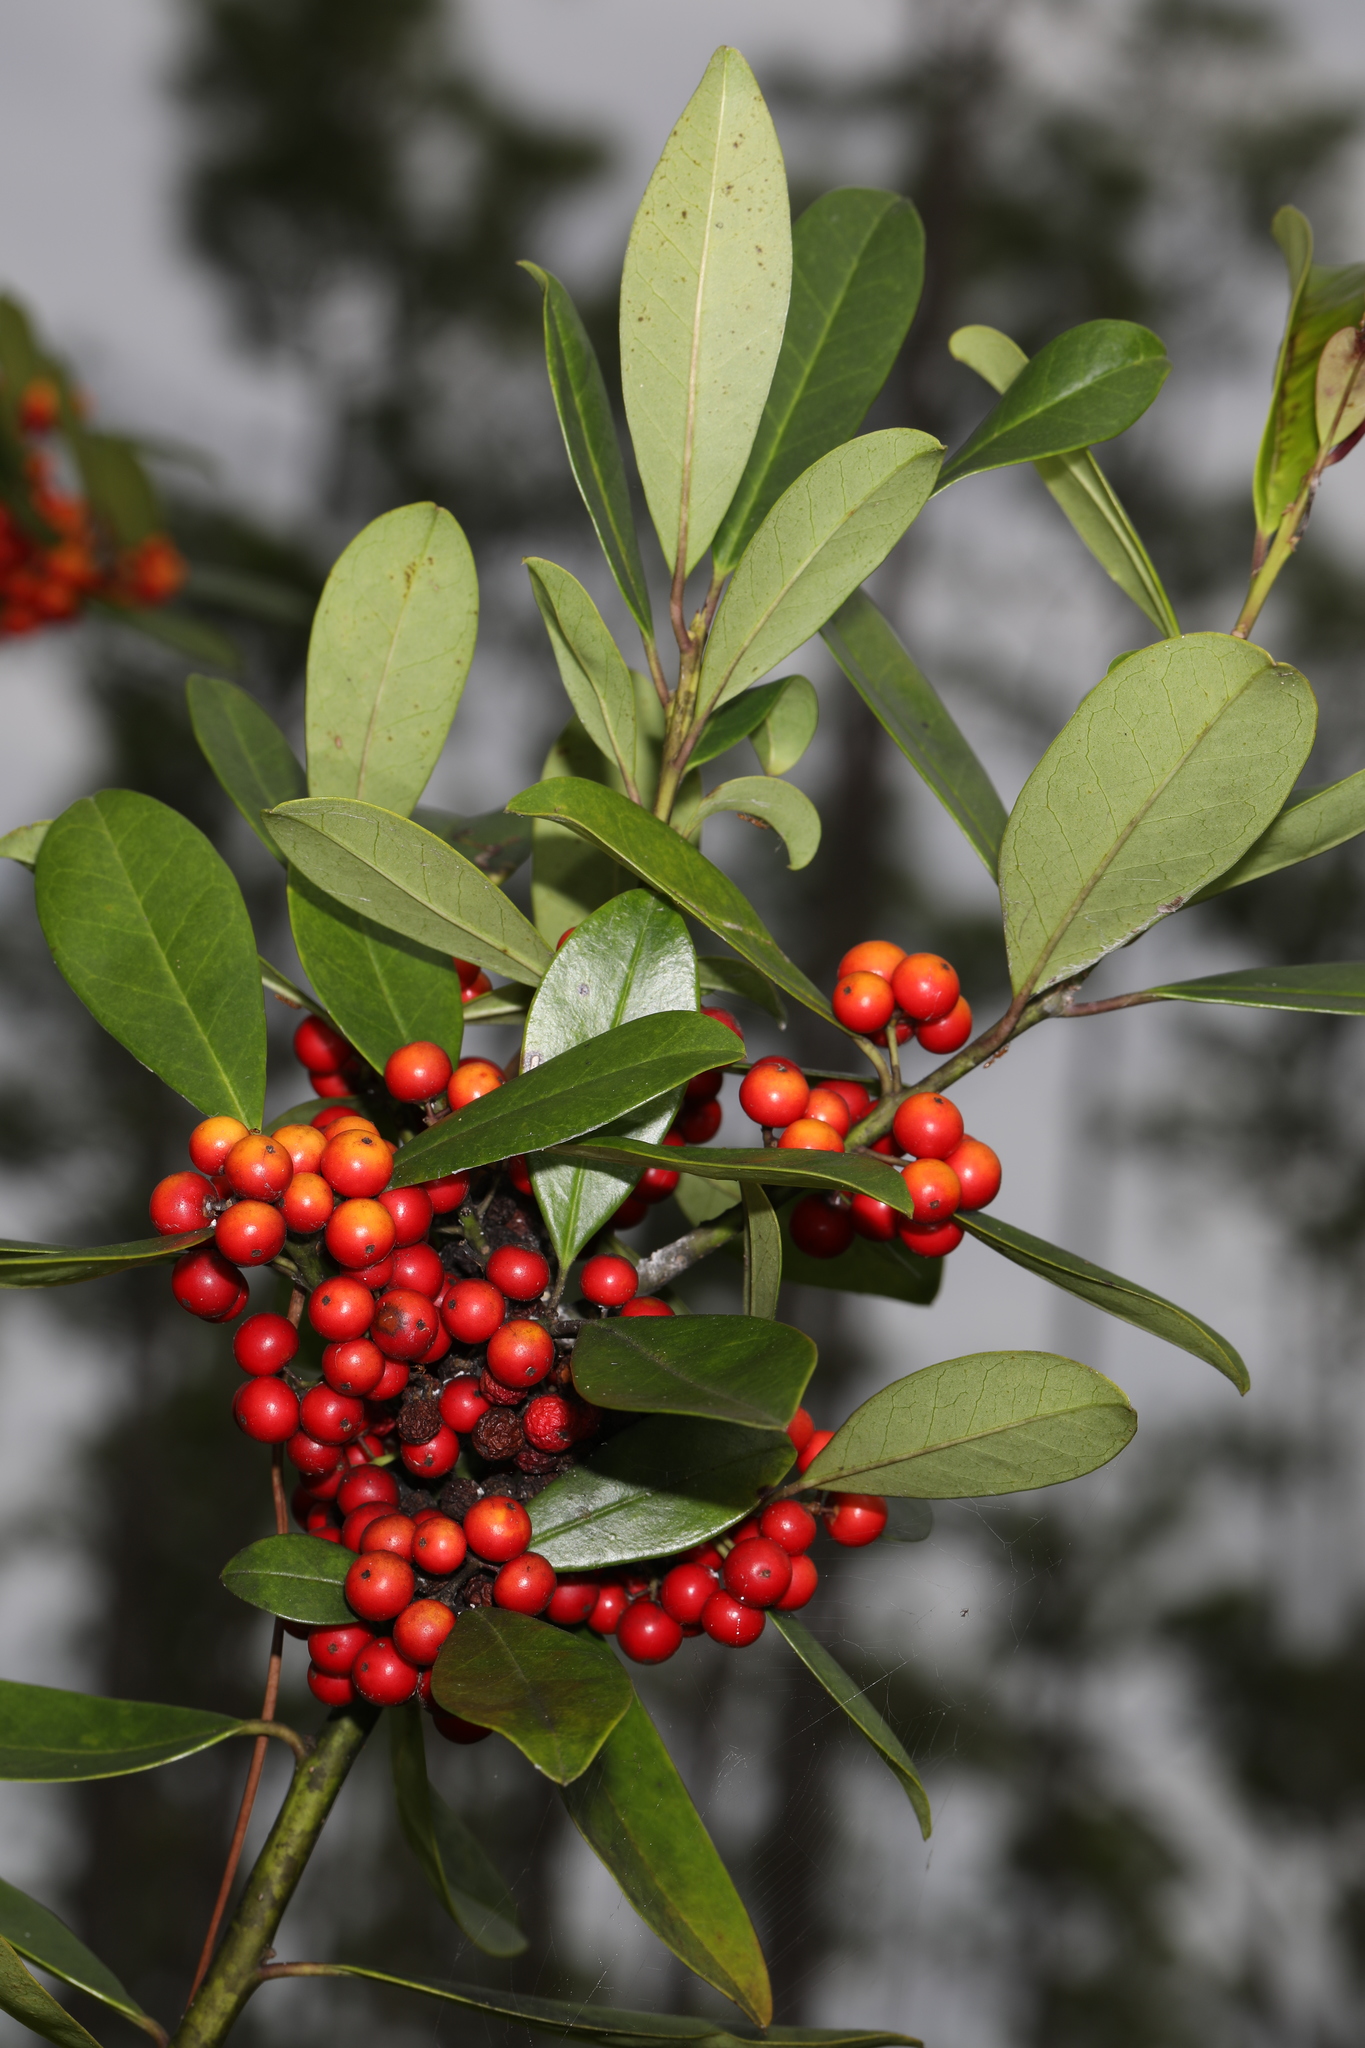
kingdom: Plantae
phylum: Tracheophyta
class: Magnoliopsida
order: Aquifoliales
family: Aquifoliaceae
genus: Ilex
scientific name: Ilex cassine
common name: Dahoon
